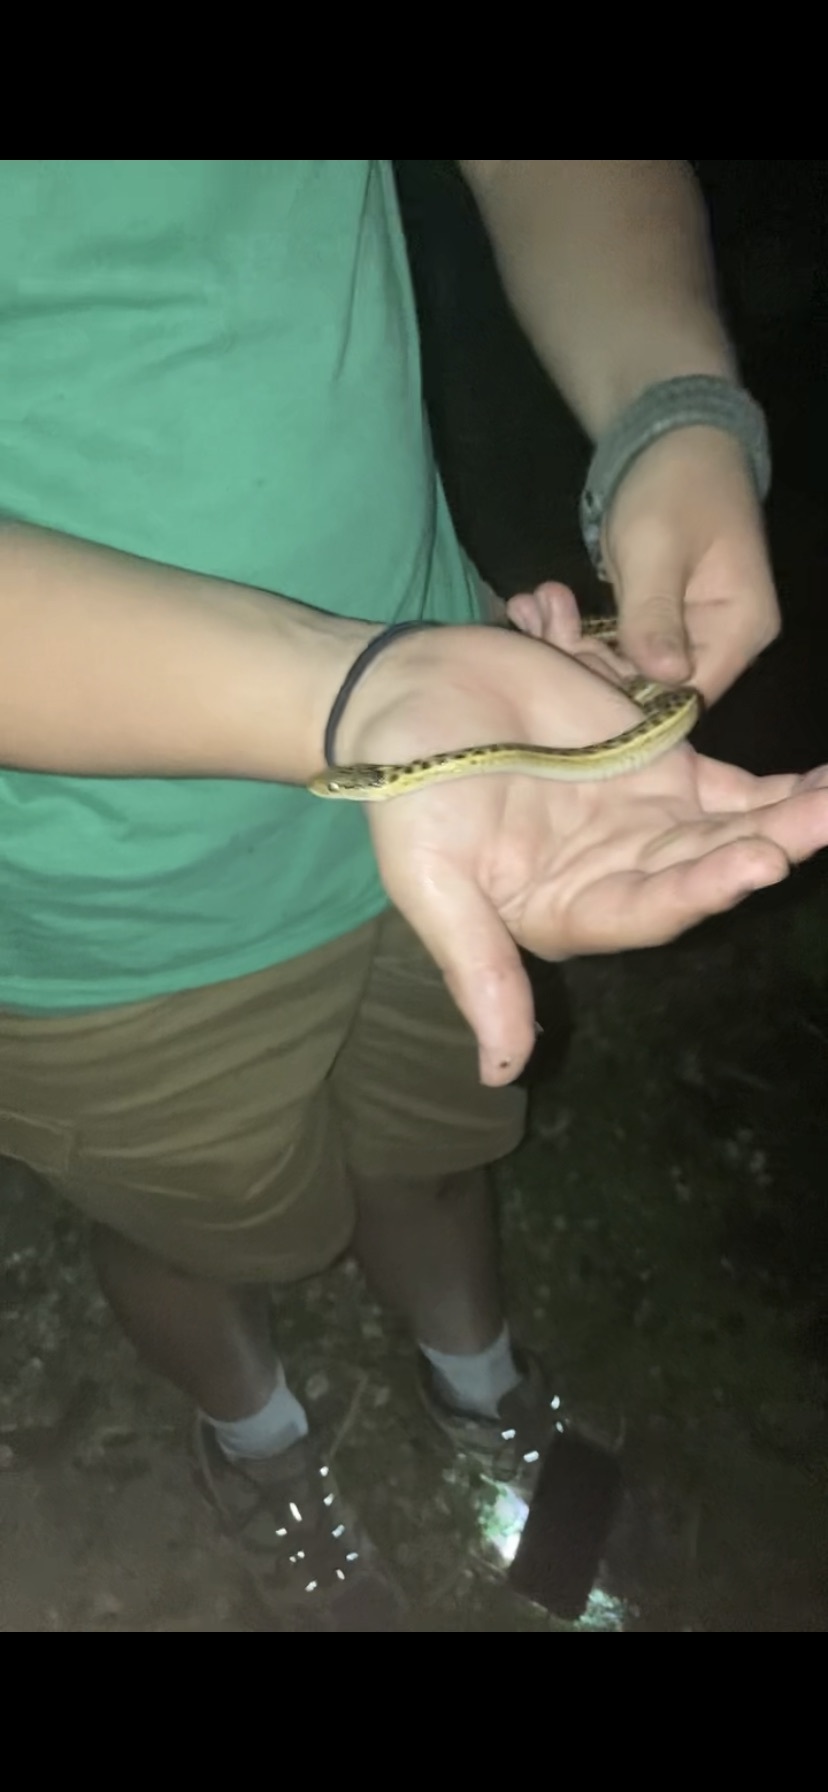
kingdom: Animalia
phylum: Chordata
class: Squamata
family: Colubridae
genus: Thamnophis
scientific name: Thamnophis elegans
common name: Western terrestrial garter snake
